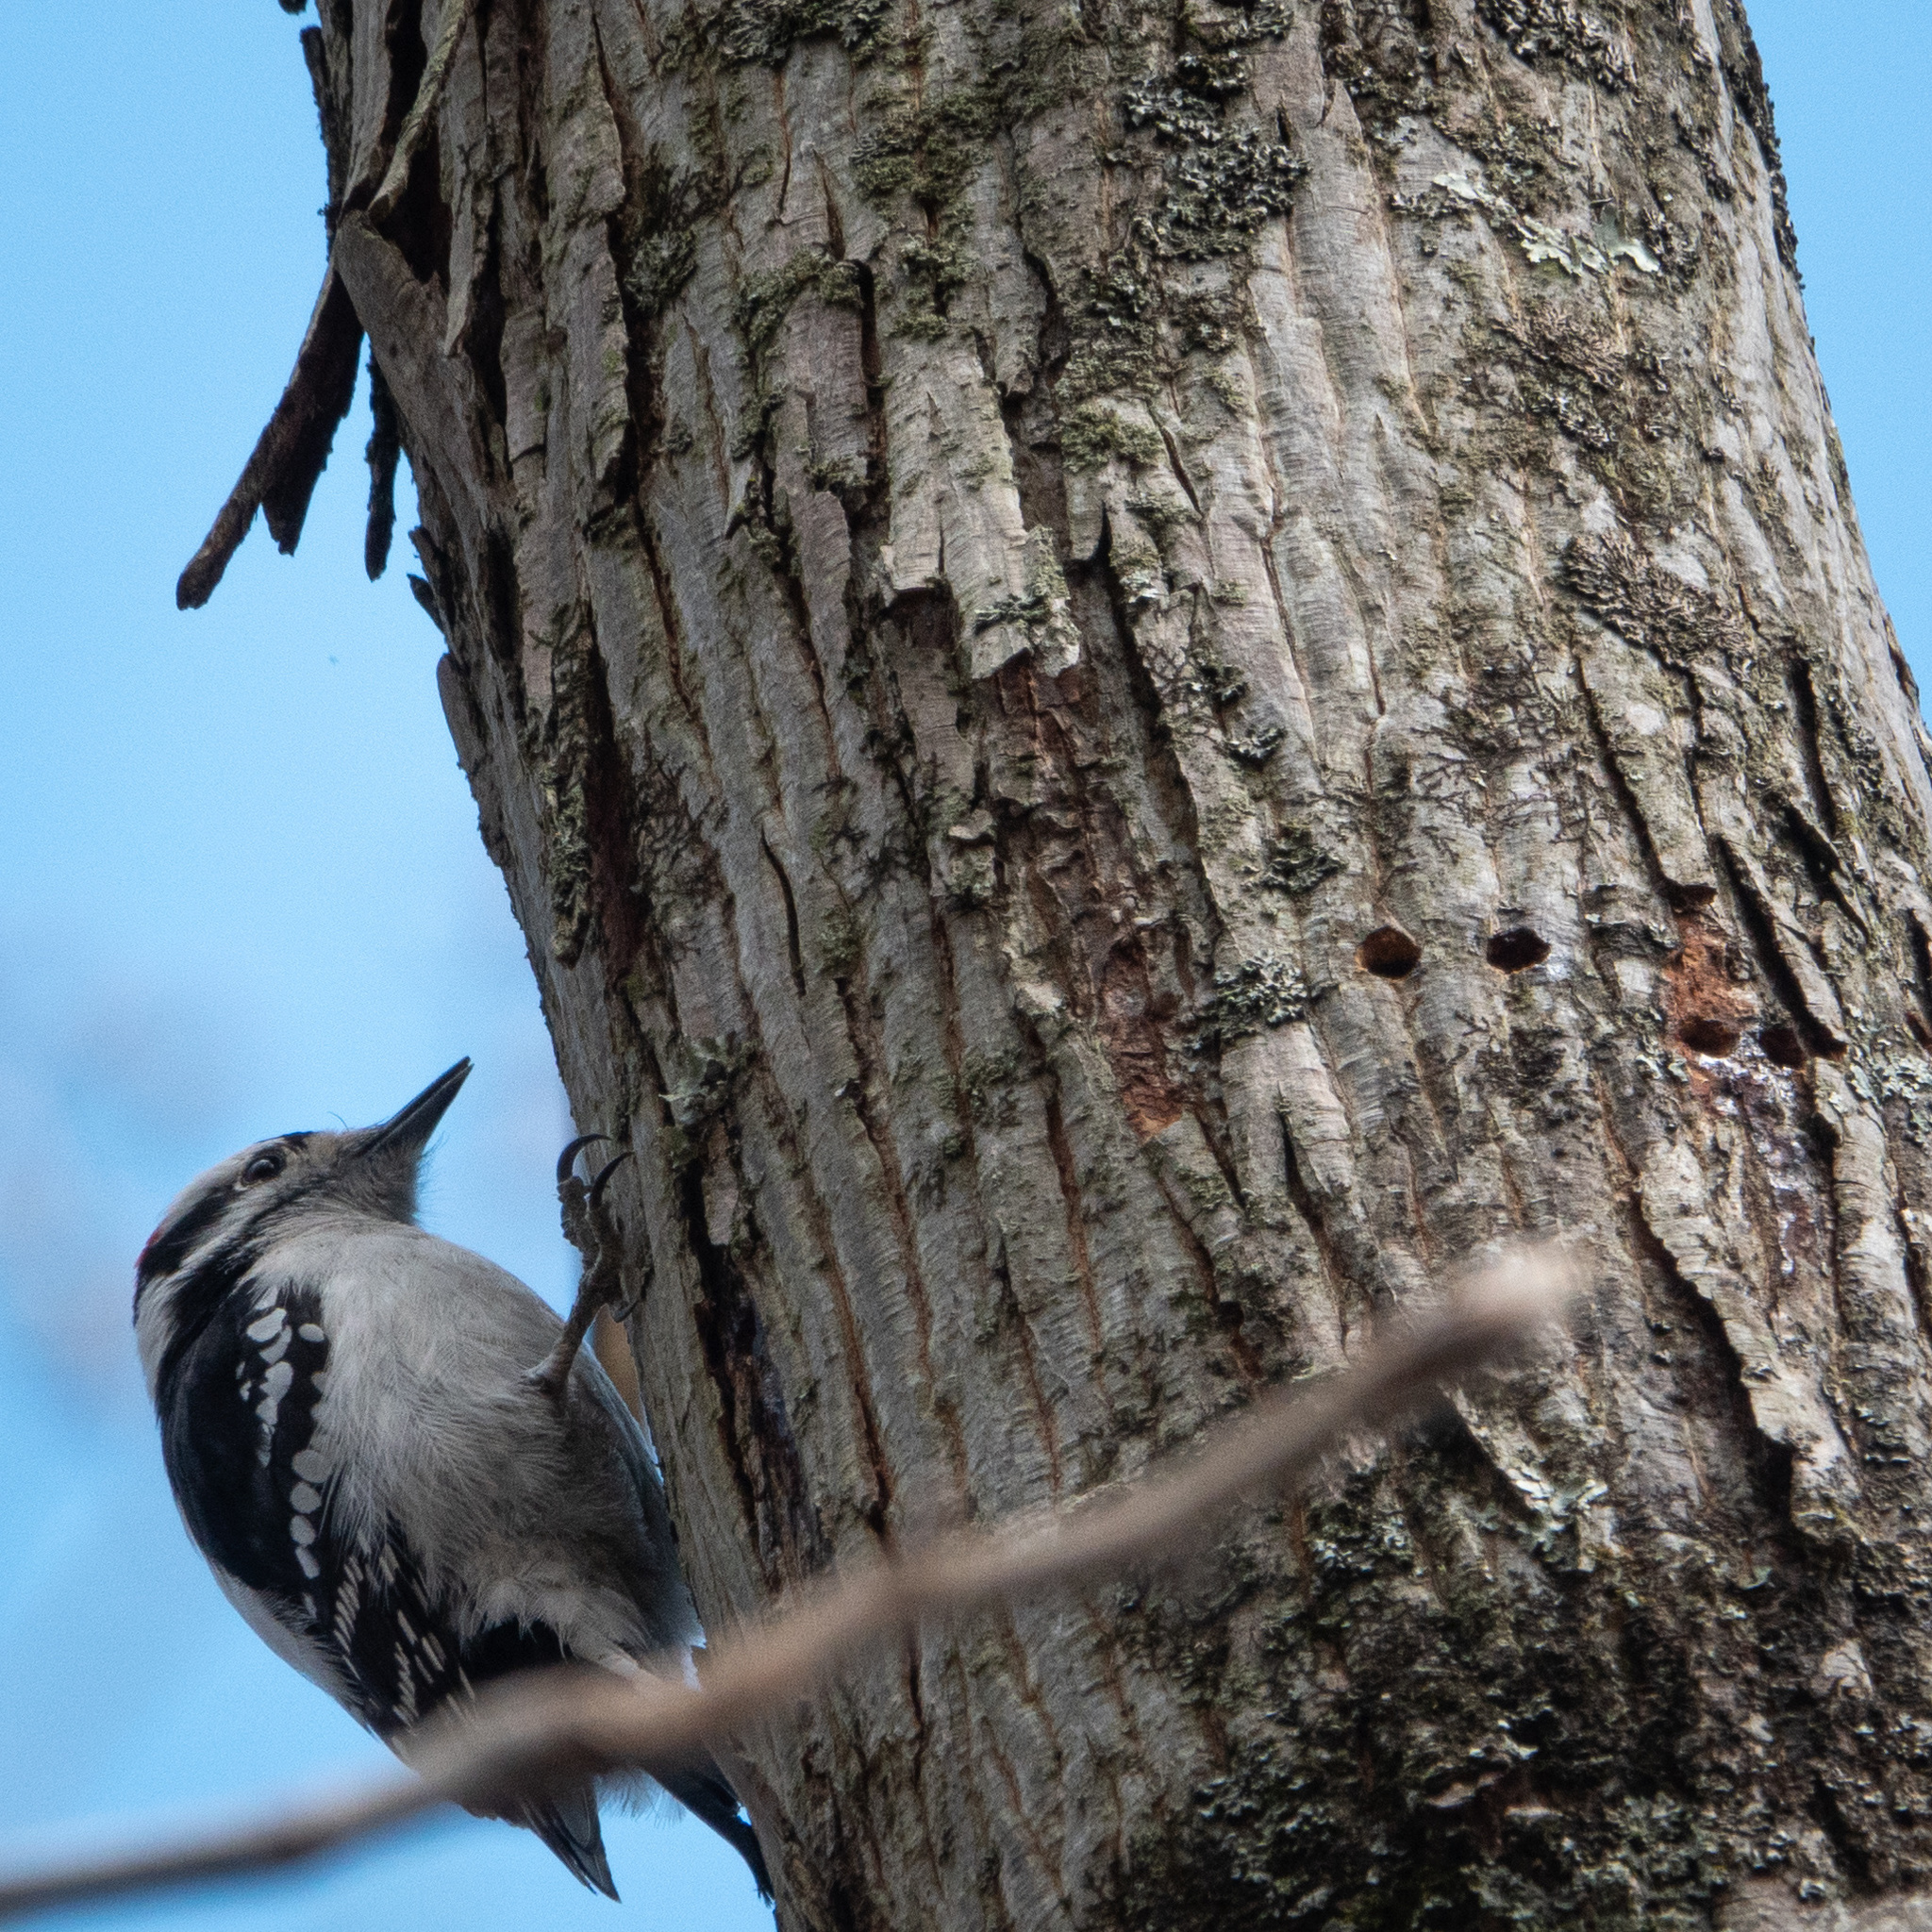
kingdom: Animalia
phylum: Chordata
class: Aves
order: Piciformes
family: Picidae
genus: Dryobates
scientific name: Dryobates pubescens
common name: Downy woodpecker
